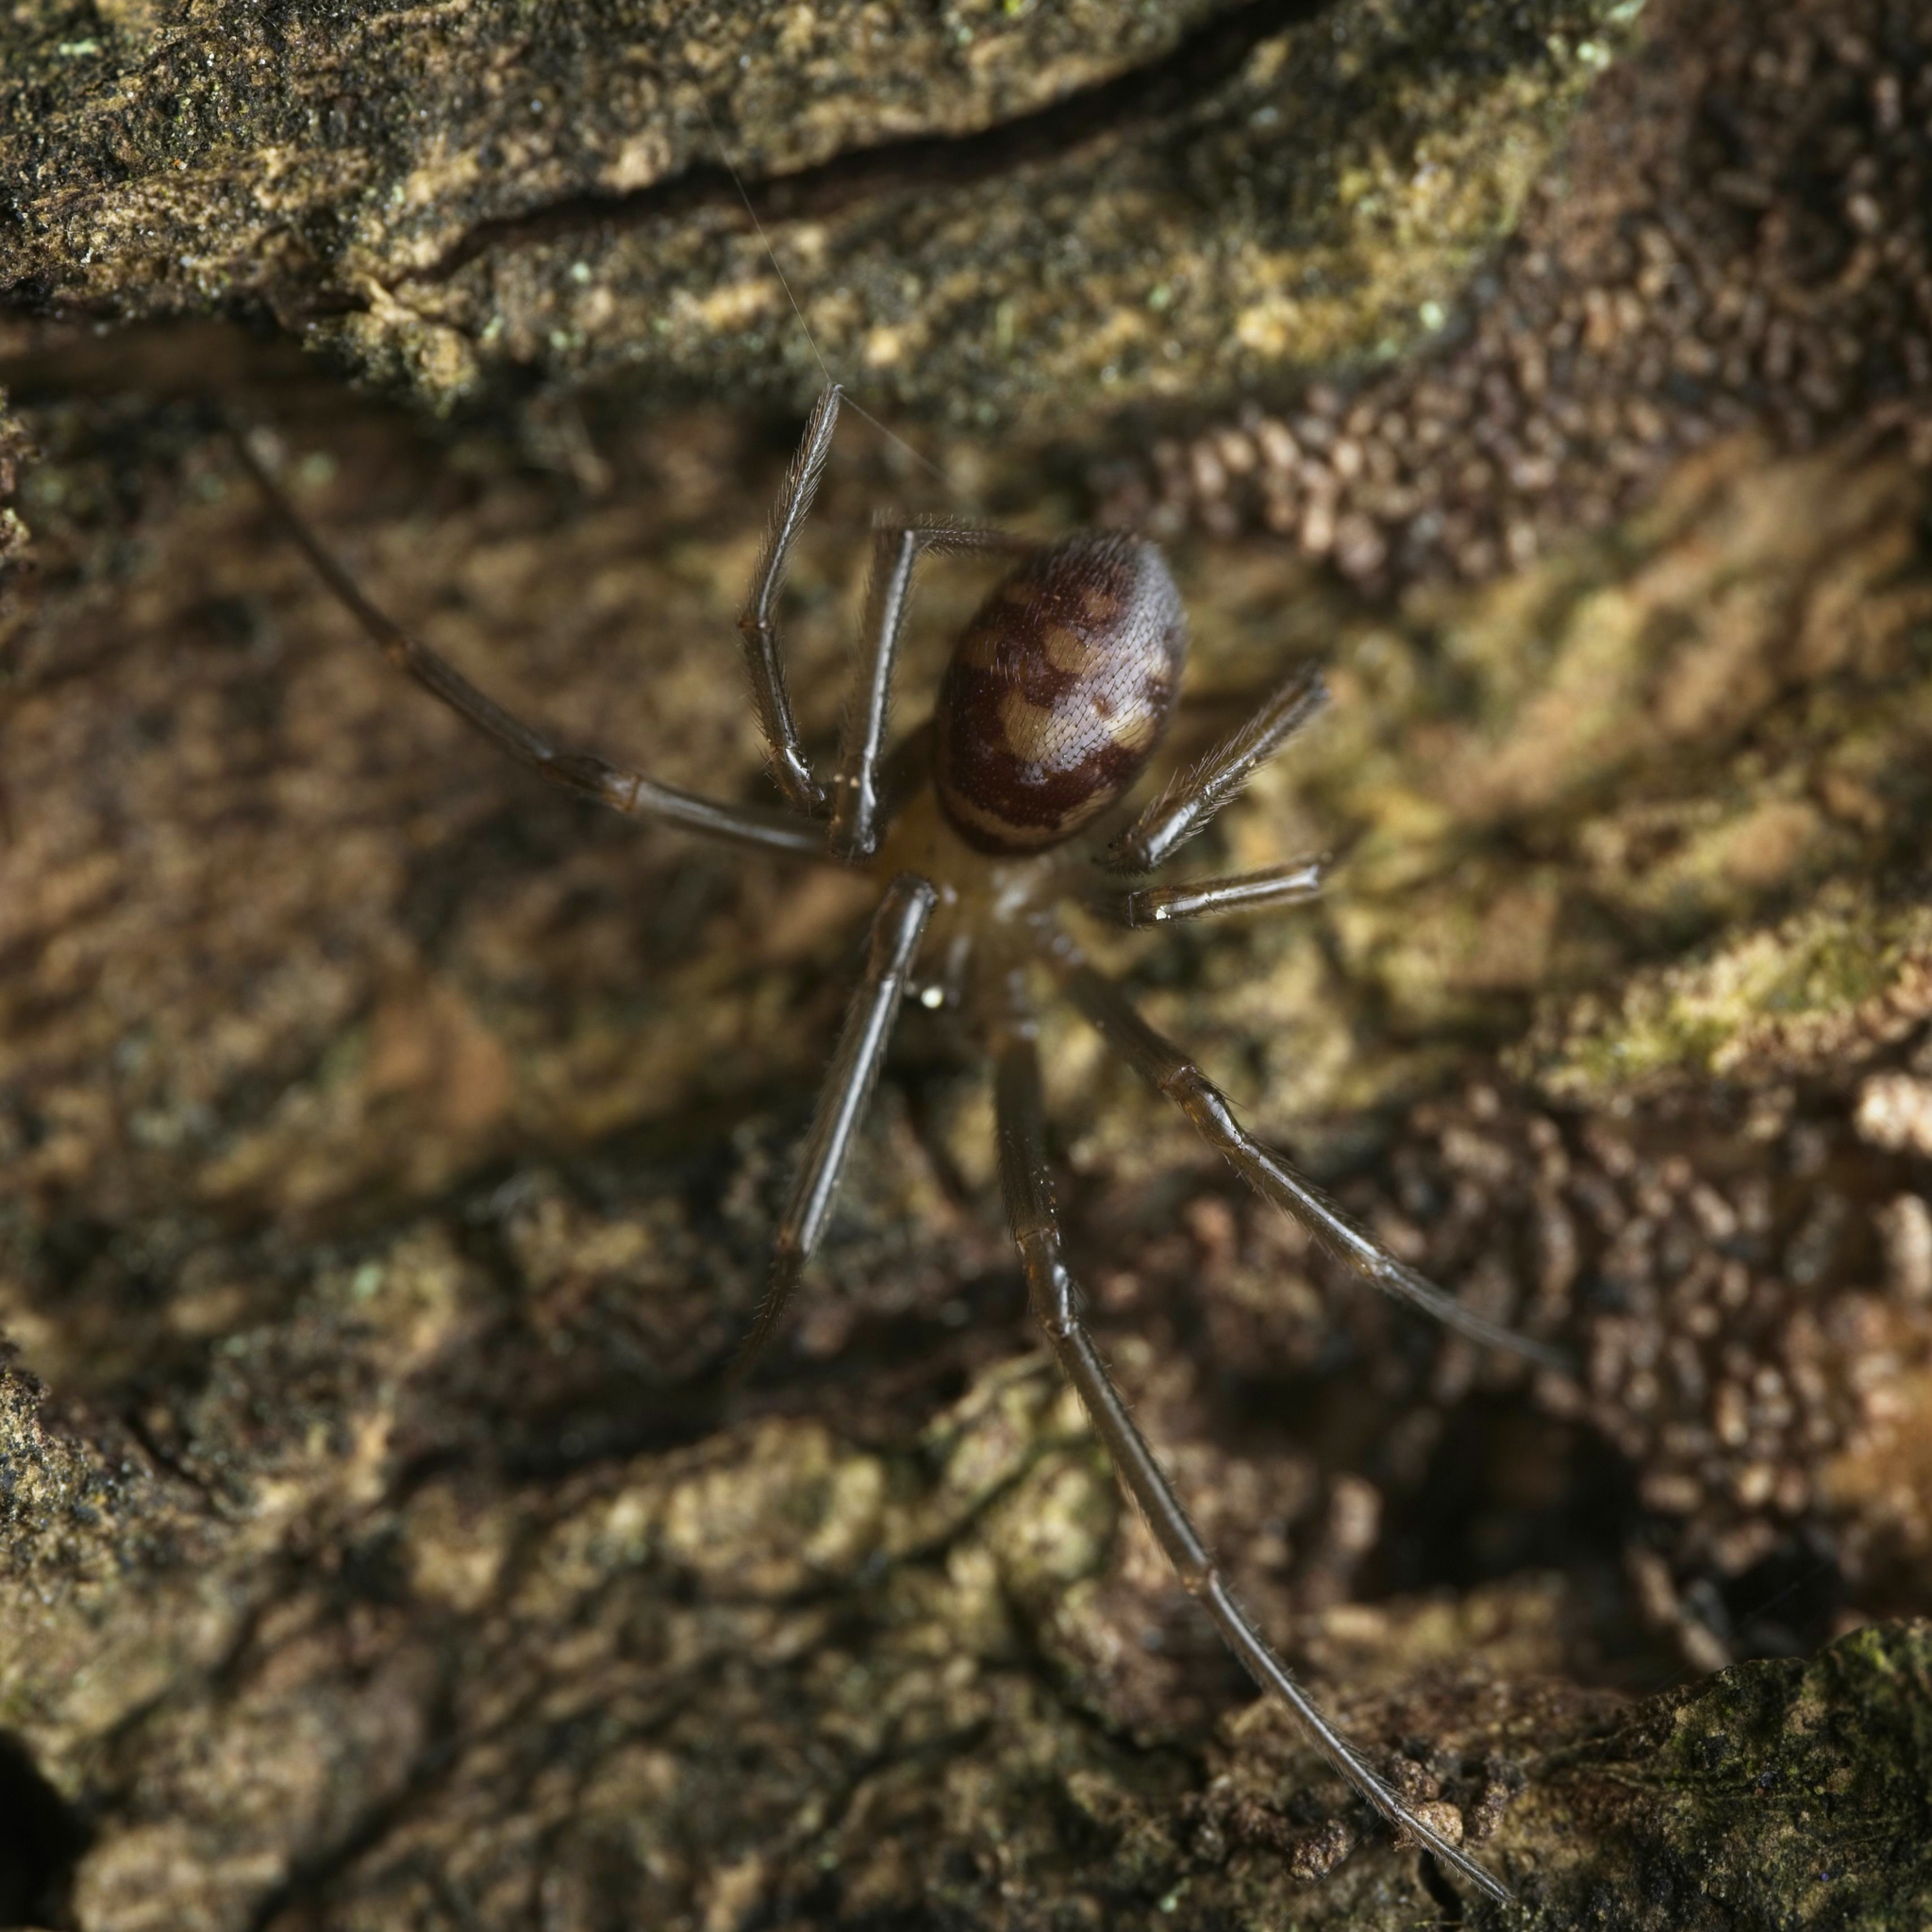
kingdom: Animalia
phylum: Arthropoda
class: Arachnida
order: Araneae
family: Theridiidae
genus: Steatoda
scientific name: Steatoda grossa
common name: False black widow
